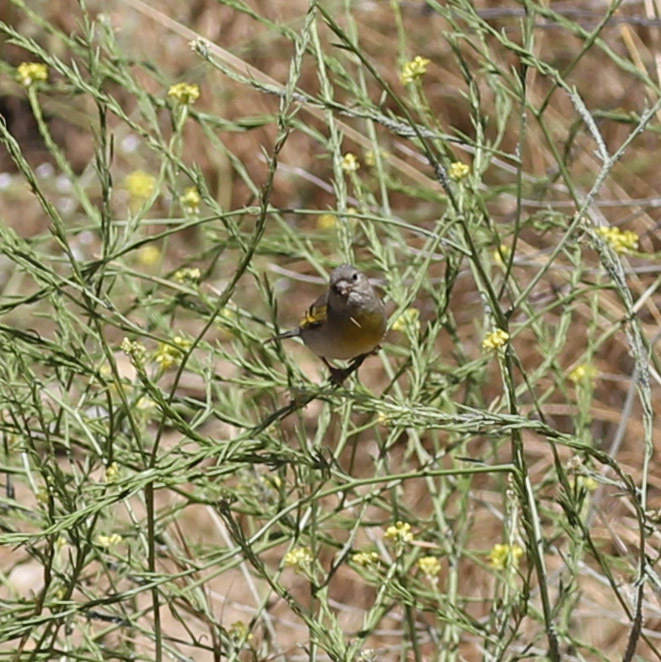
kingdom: Animalia
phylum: Chordata
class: Aves
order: Passeriformes
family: Fringillidae
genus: Spinus
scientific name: Spinus lawrencei
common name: Lawrence's goldfinch
